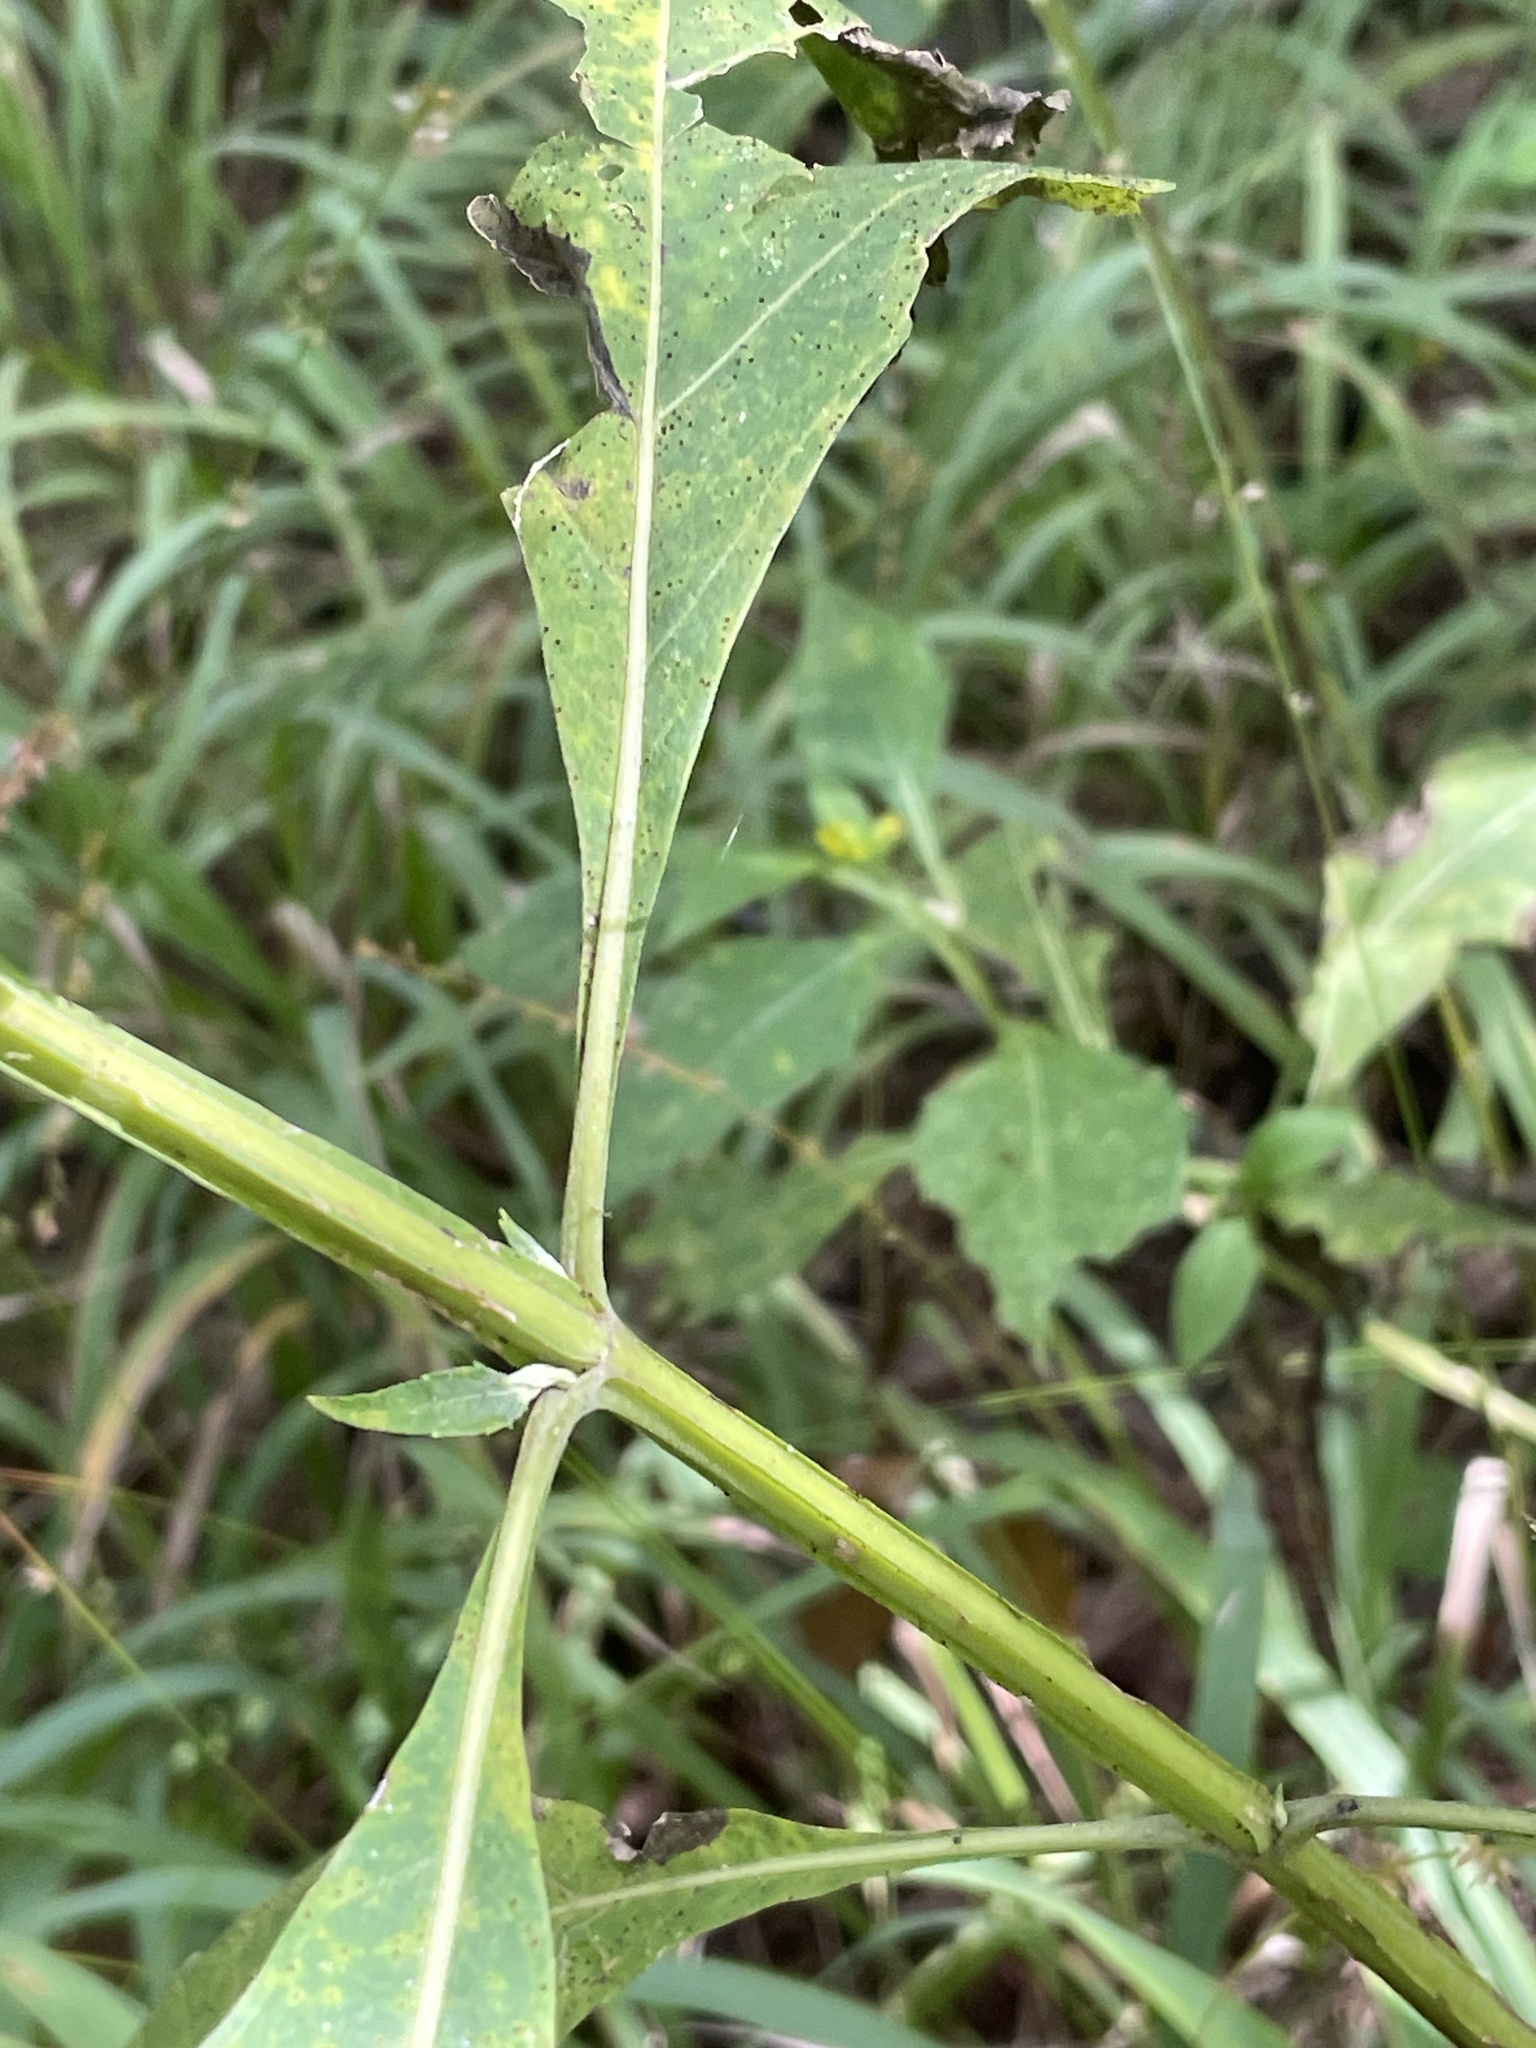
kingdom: Plantae
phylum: Tracheophyta
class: Magnoliopsida
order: Asterales
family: Asteraceae
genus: Verbesina
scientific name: Verbesina occidentalis
